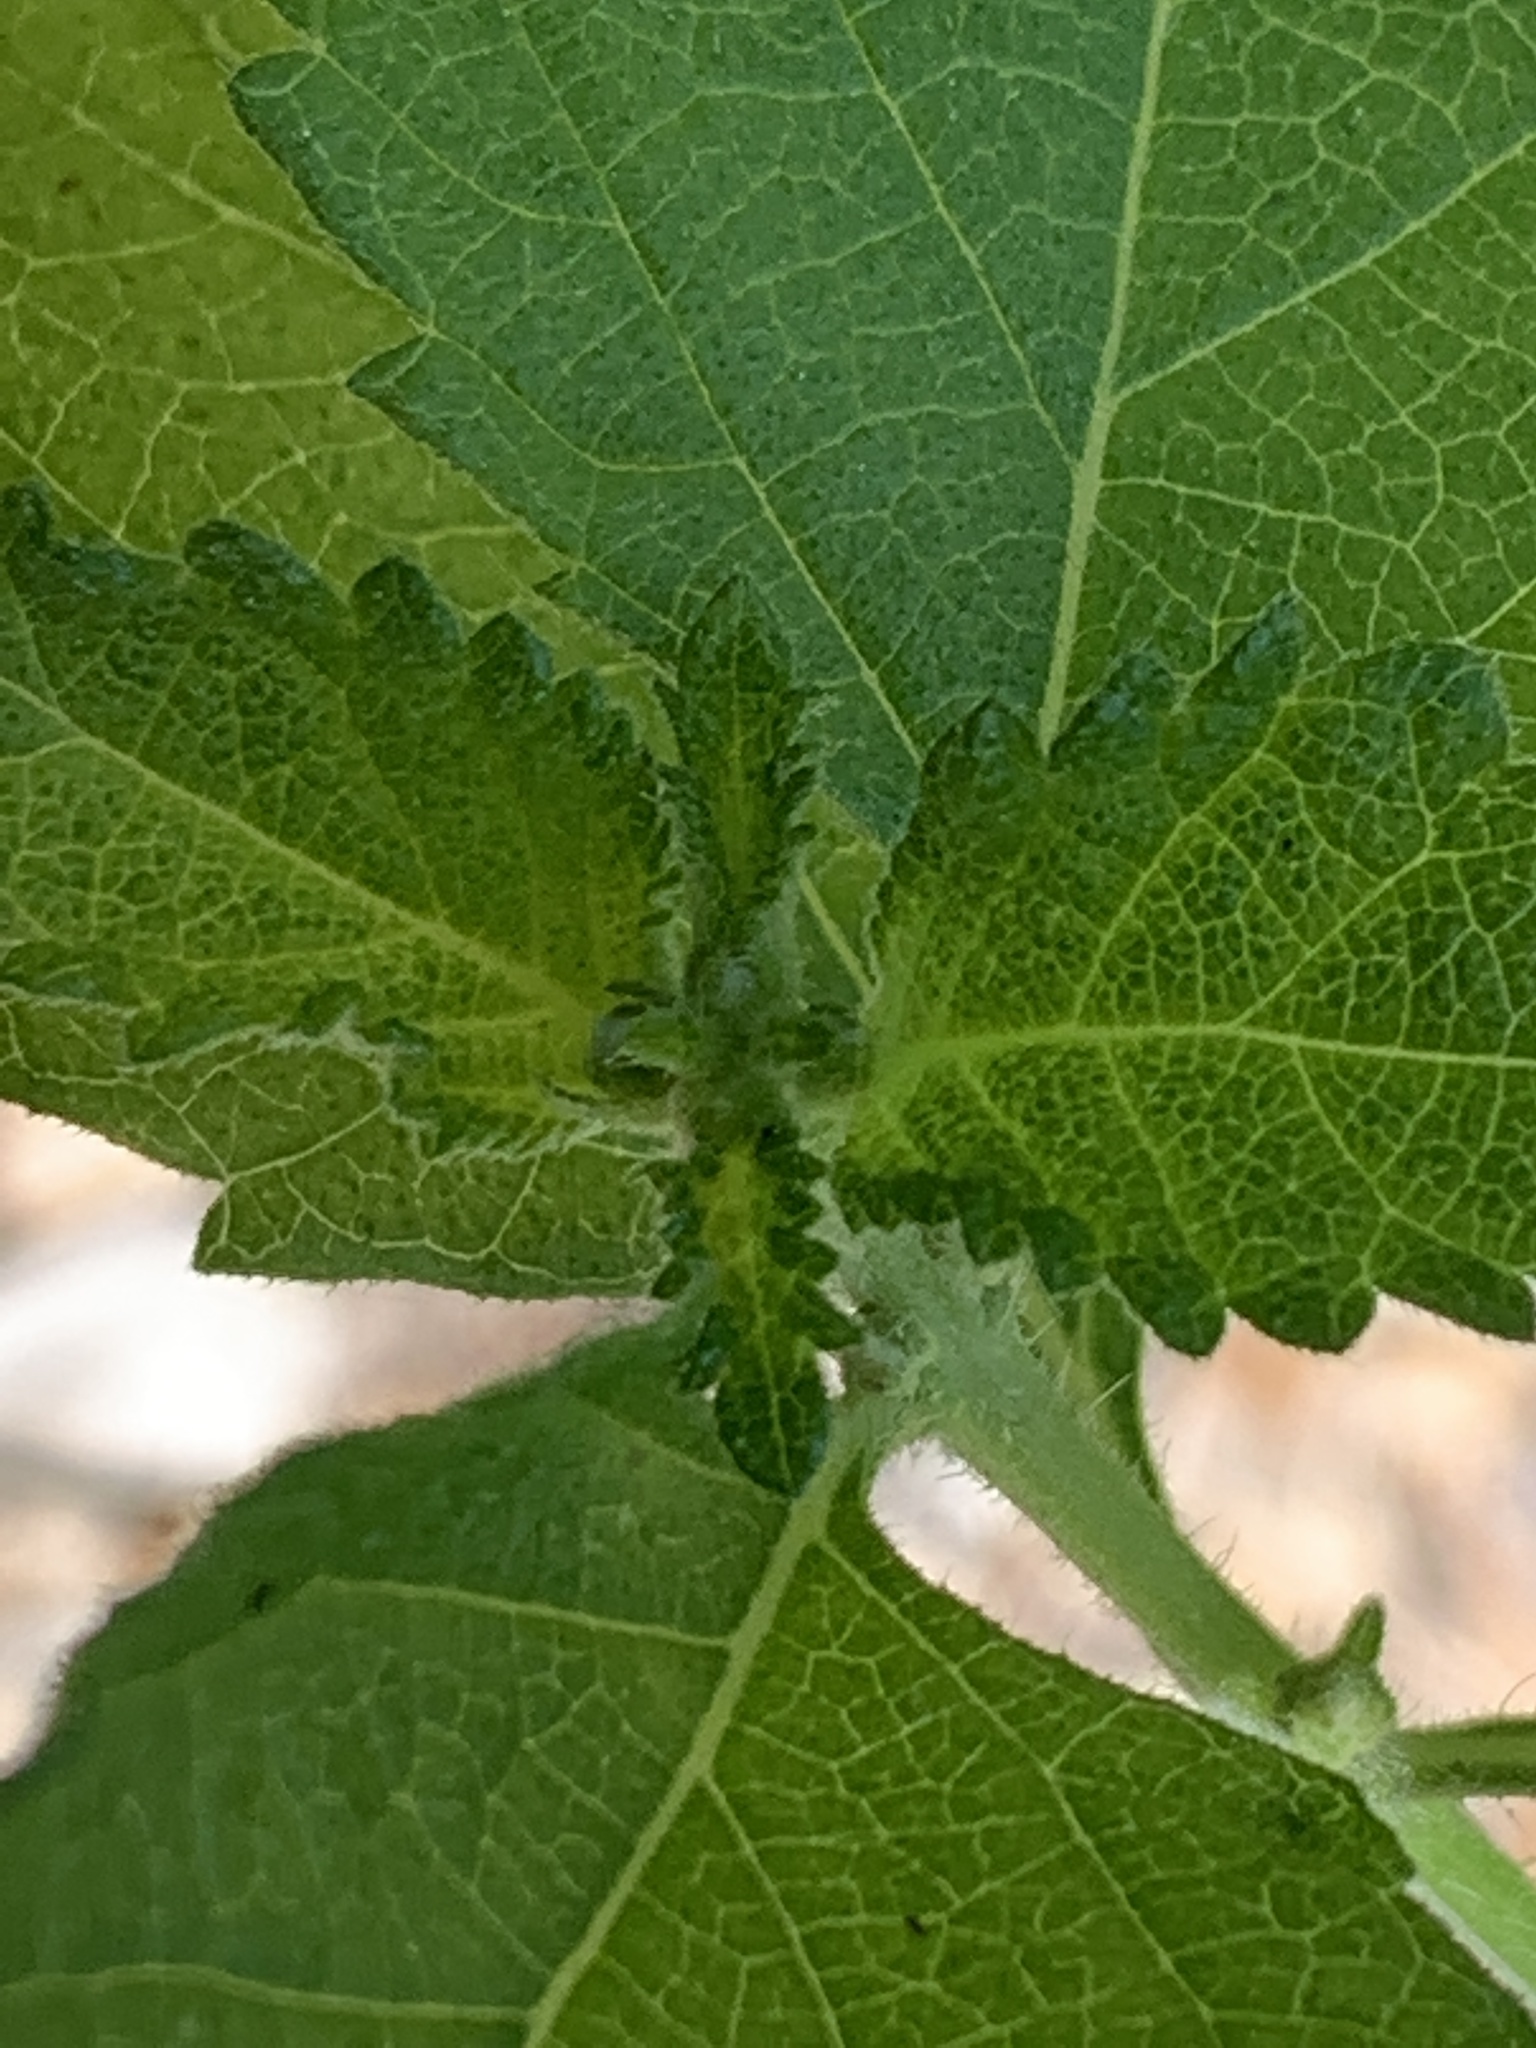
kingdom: Plantae
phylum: Tracheophyta
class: Magnoliopsida
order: Lamiales
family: Verbenaceae
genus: Lantana
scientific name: Lantana urticoides
